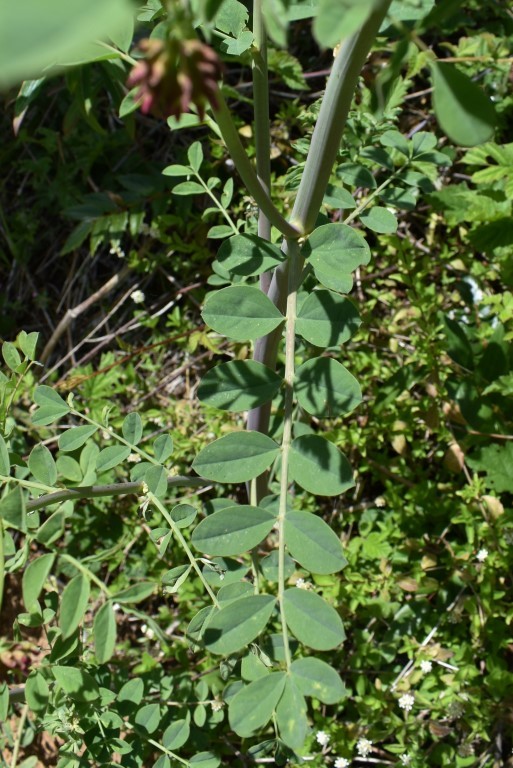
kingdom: Plantae
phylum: Tracheophyta
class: Magnoliopsida
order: Fabales
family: Fabaceae
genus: Hosackia
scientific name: Hosackia crassifolia
